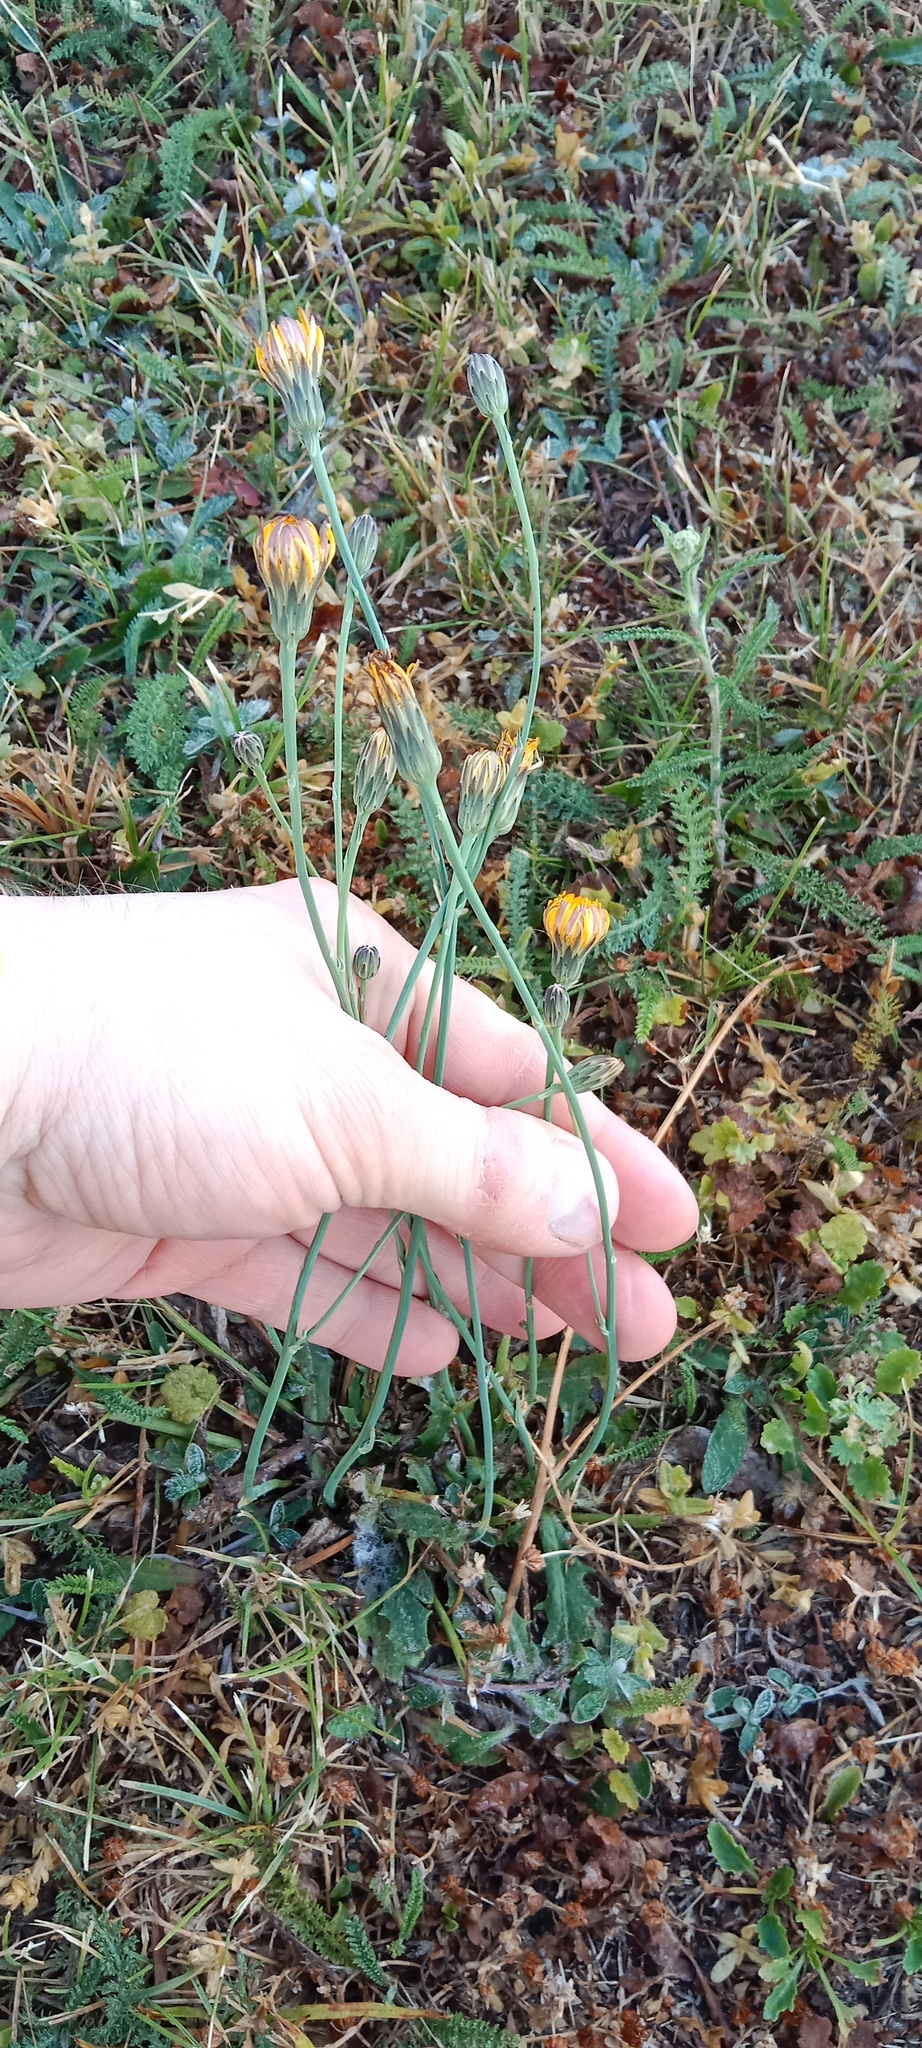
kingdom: Plantae
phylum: Tracheophyta
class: Magnoliopsida
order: Asterales
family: Asteraceae
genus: Hypochaeris
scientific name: Hypochaeris radicata
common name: Flatweed
